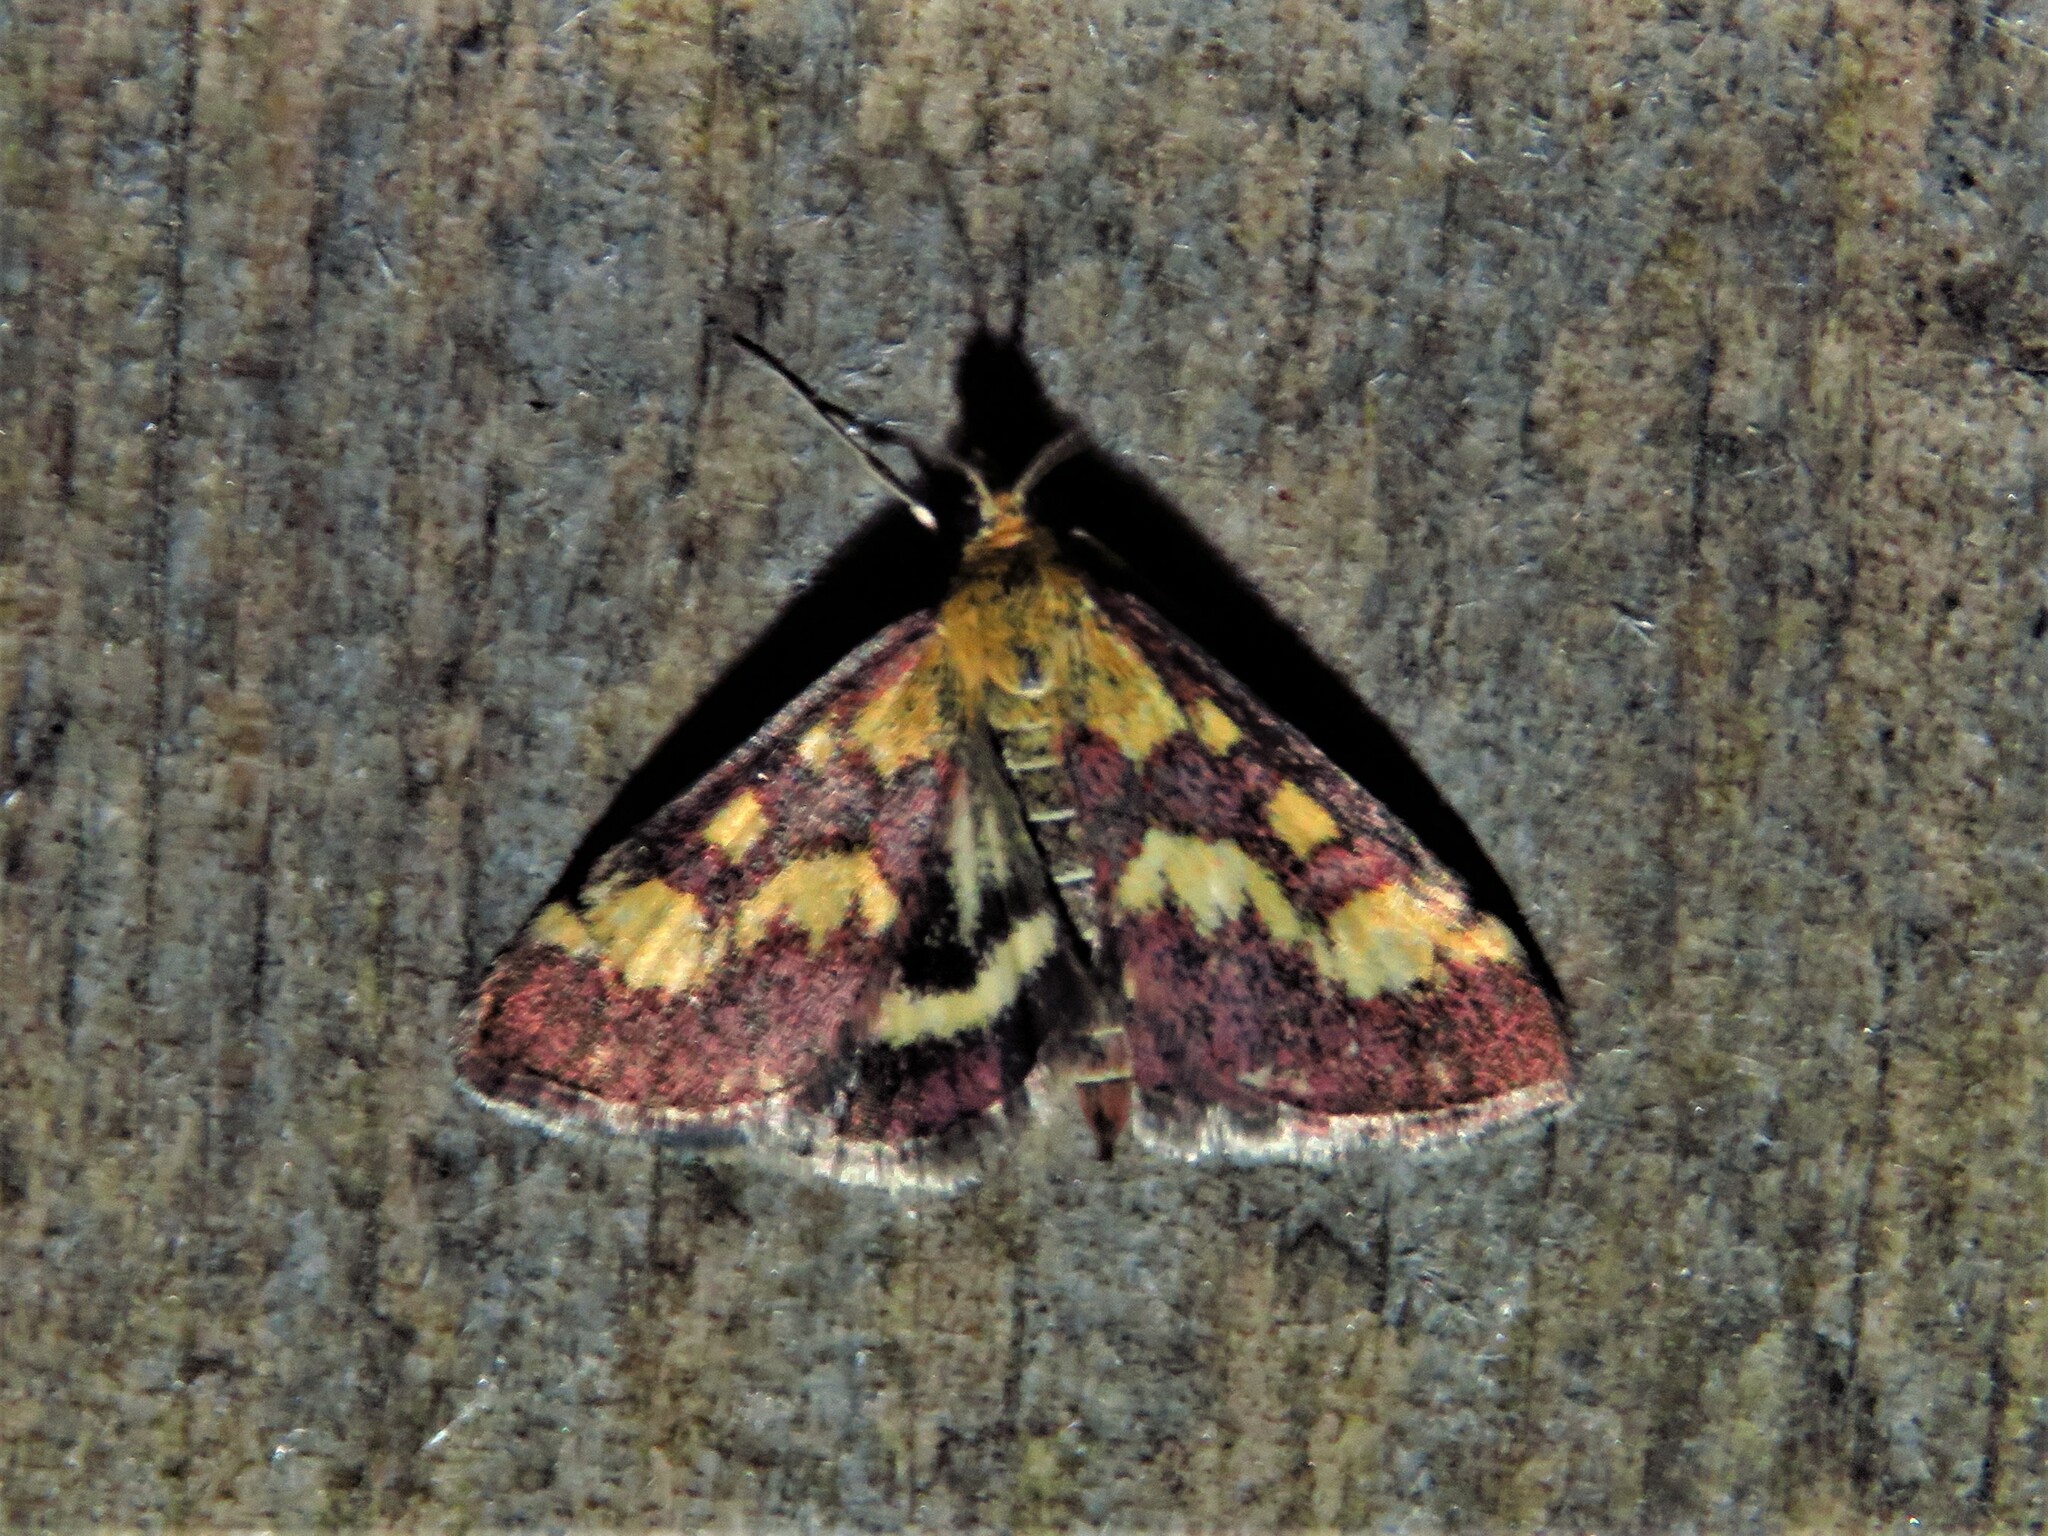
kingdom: Animalia
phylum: Arthropoda
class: Insecta
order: Lepidoptera
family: Crambidae
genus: Pyrausta
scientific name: Pyrausta purpuralis
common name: Common purple & gold
